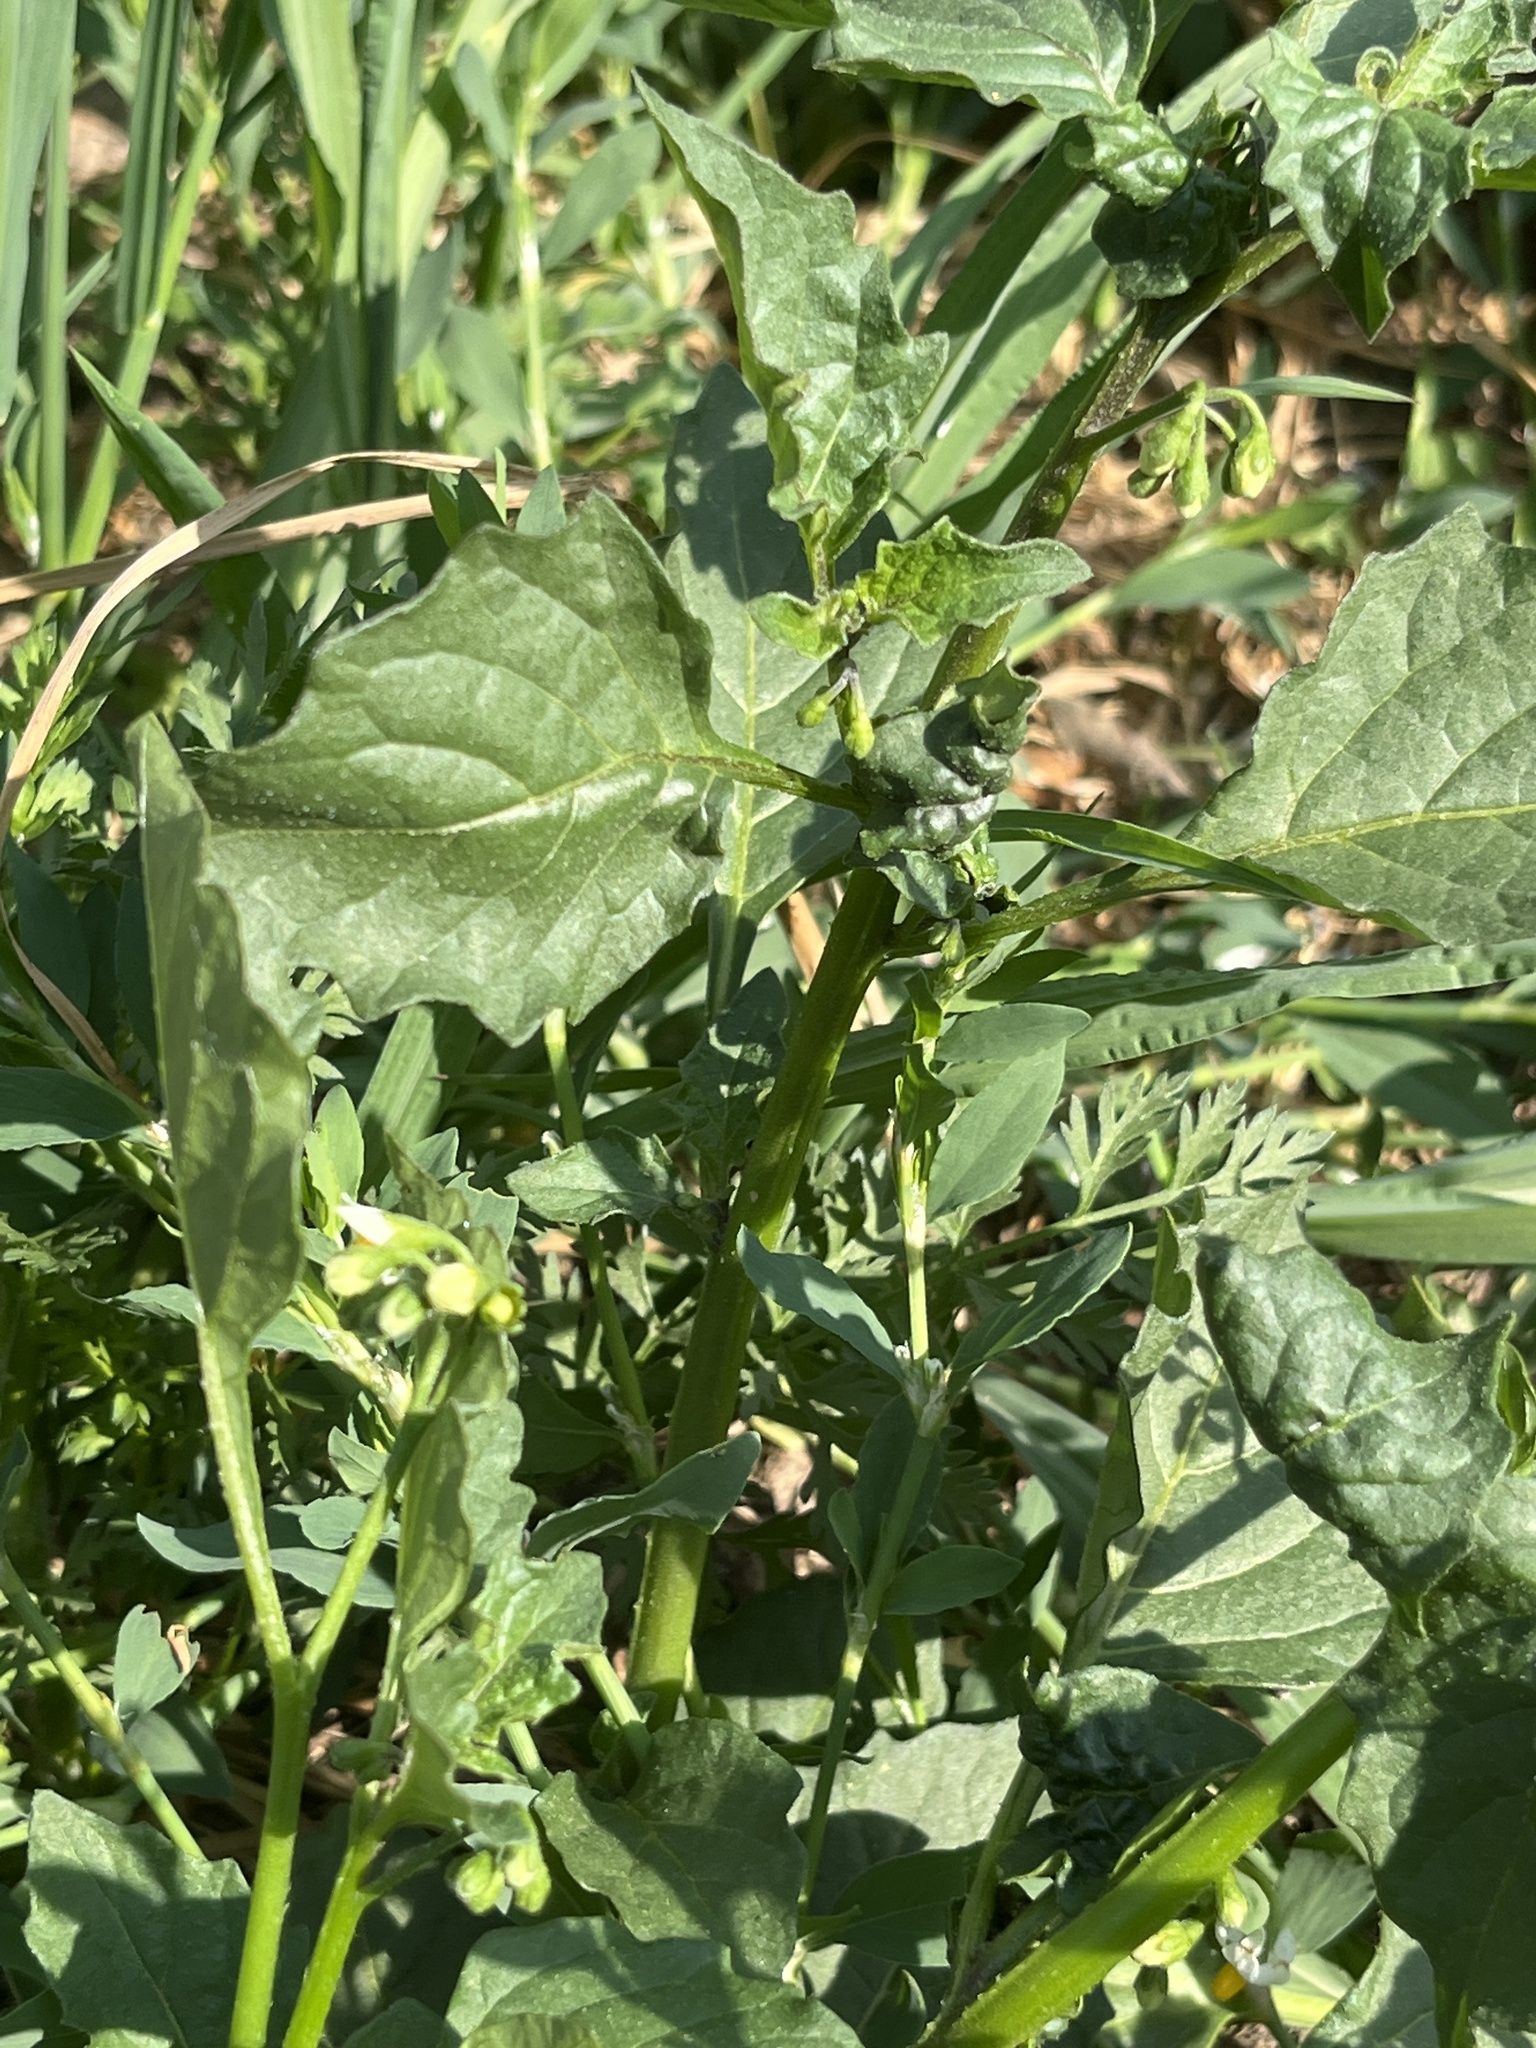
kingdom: Plantae
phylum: Tracheophyta
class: Magnoliopsida
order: Solanales
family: Solanaceae
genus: Solanum
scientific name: Solanum nigrum
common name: Black nightshade
